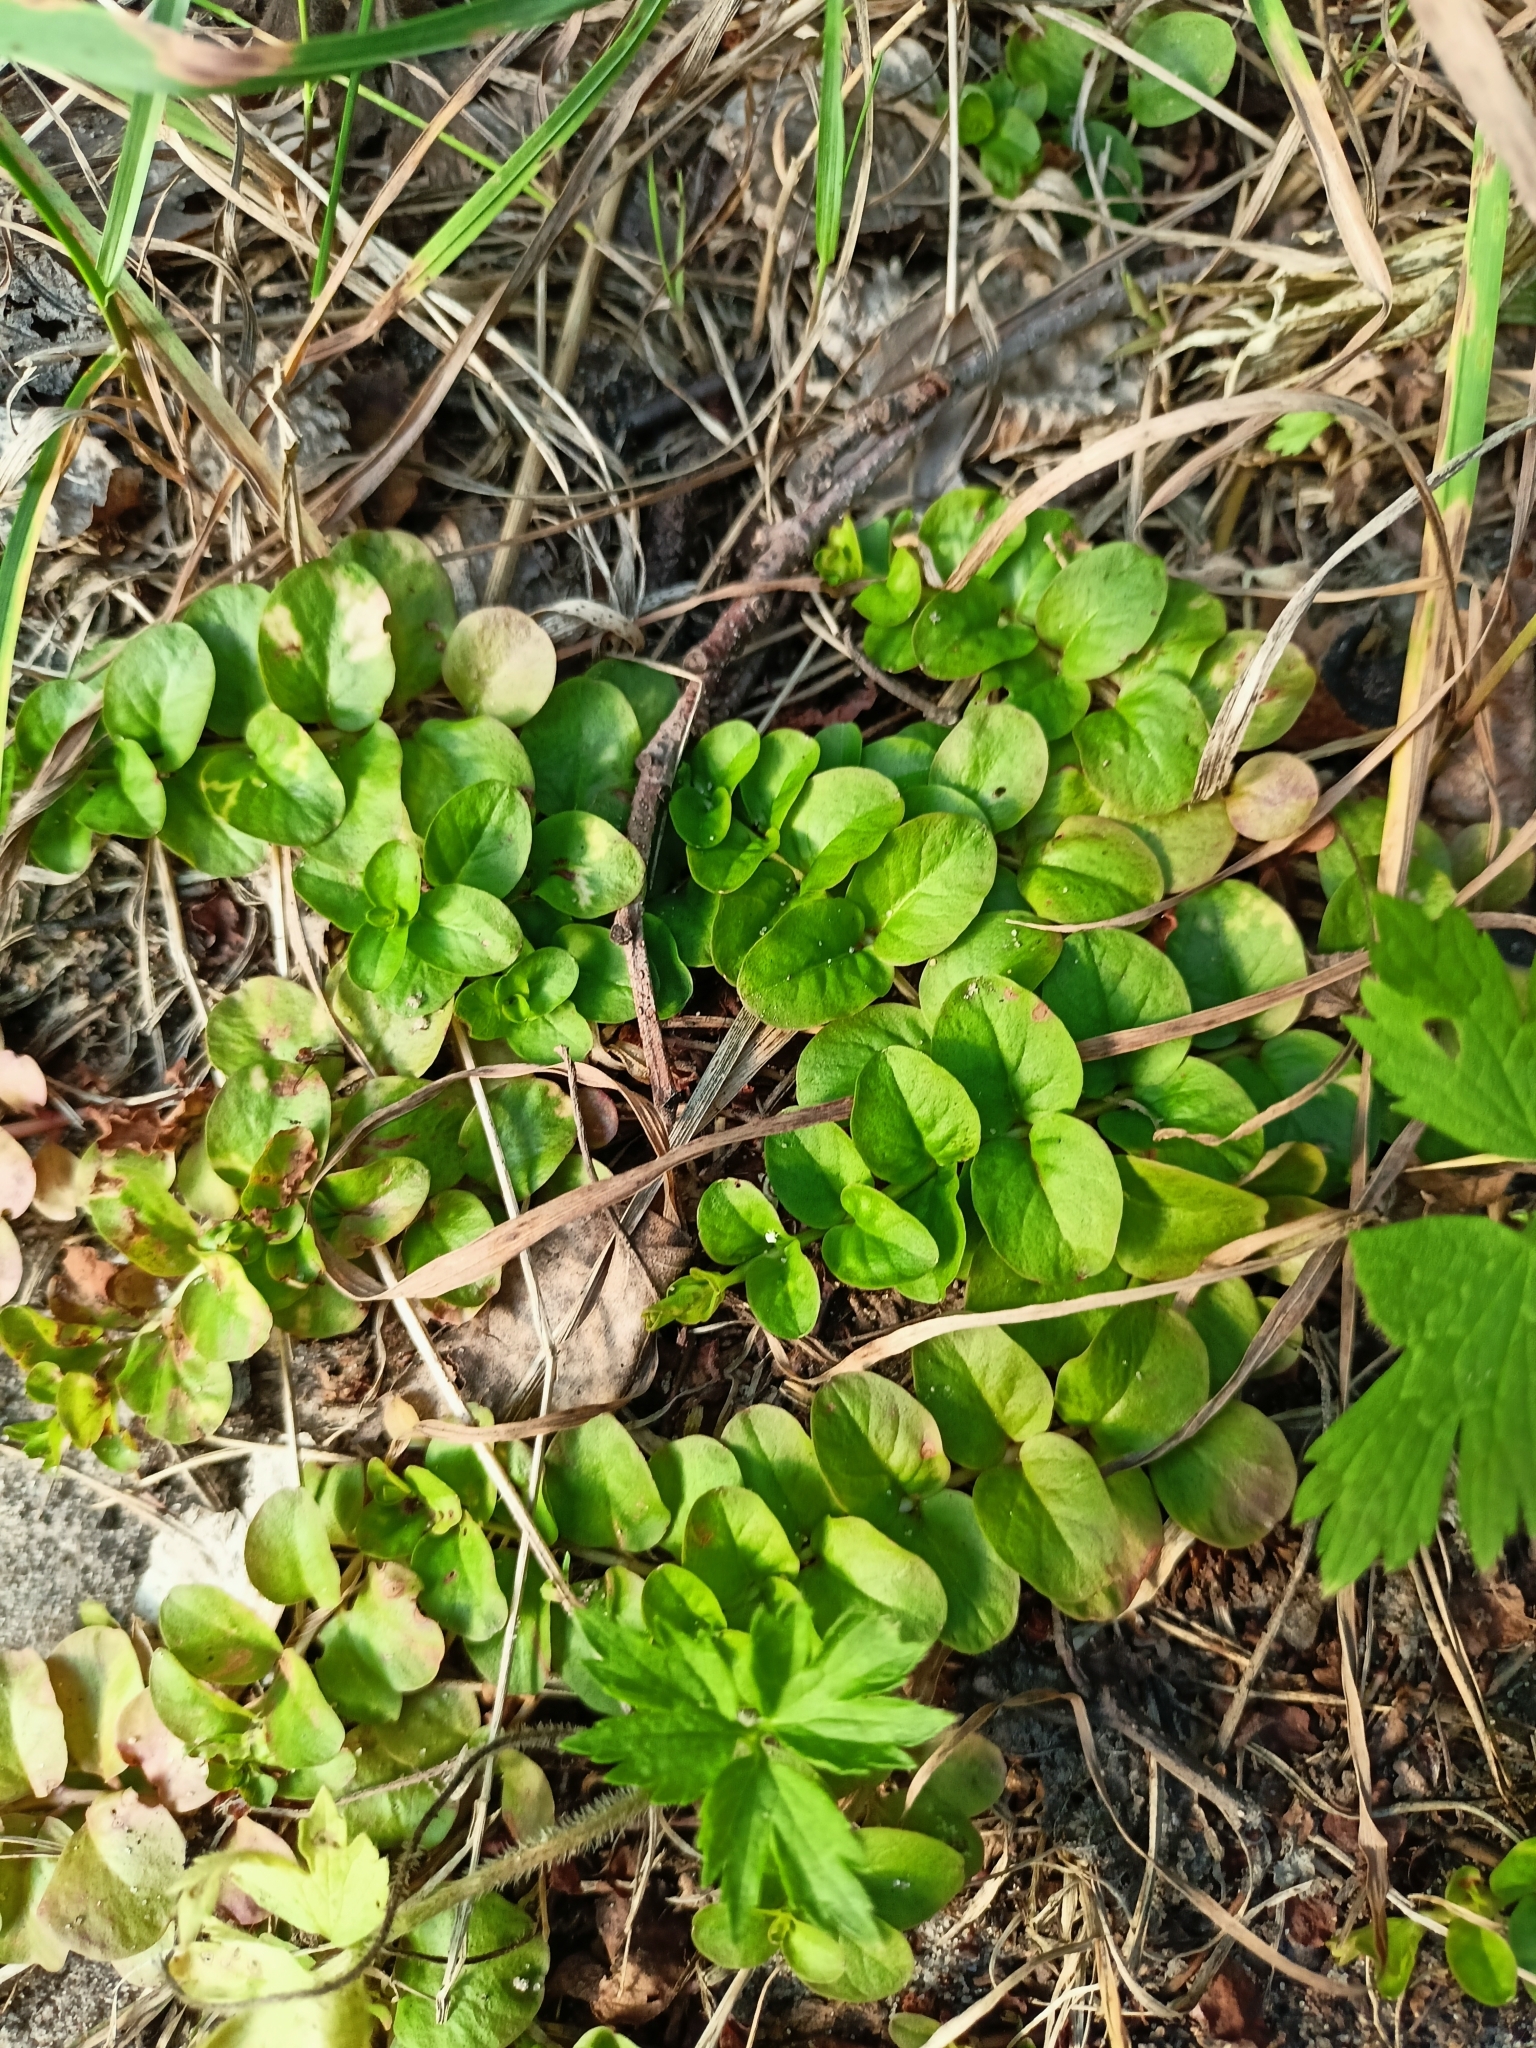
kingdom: Plantae
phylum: Tracheophyta
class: Magnoliopsida
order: Ericales
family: Primulaceae
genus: Lysimachia
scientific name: Lysimachia nummularia
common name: Moneywort
